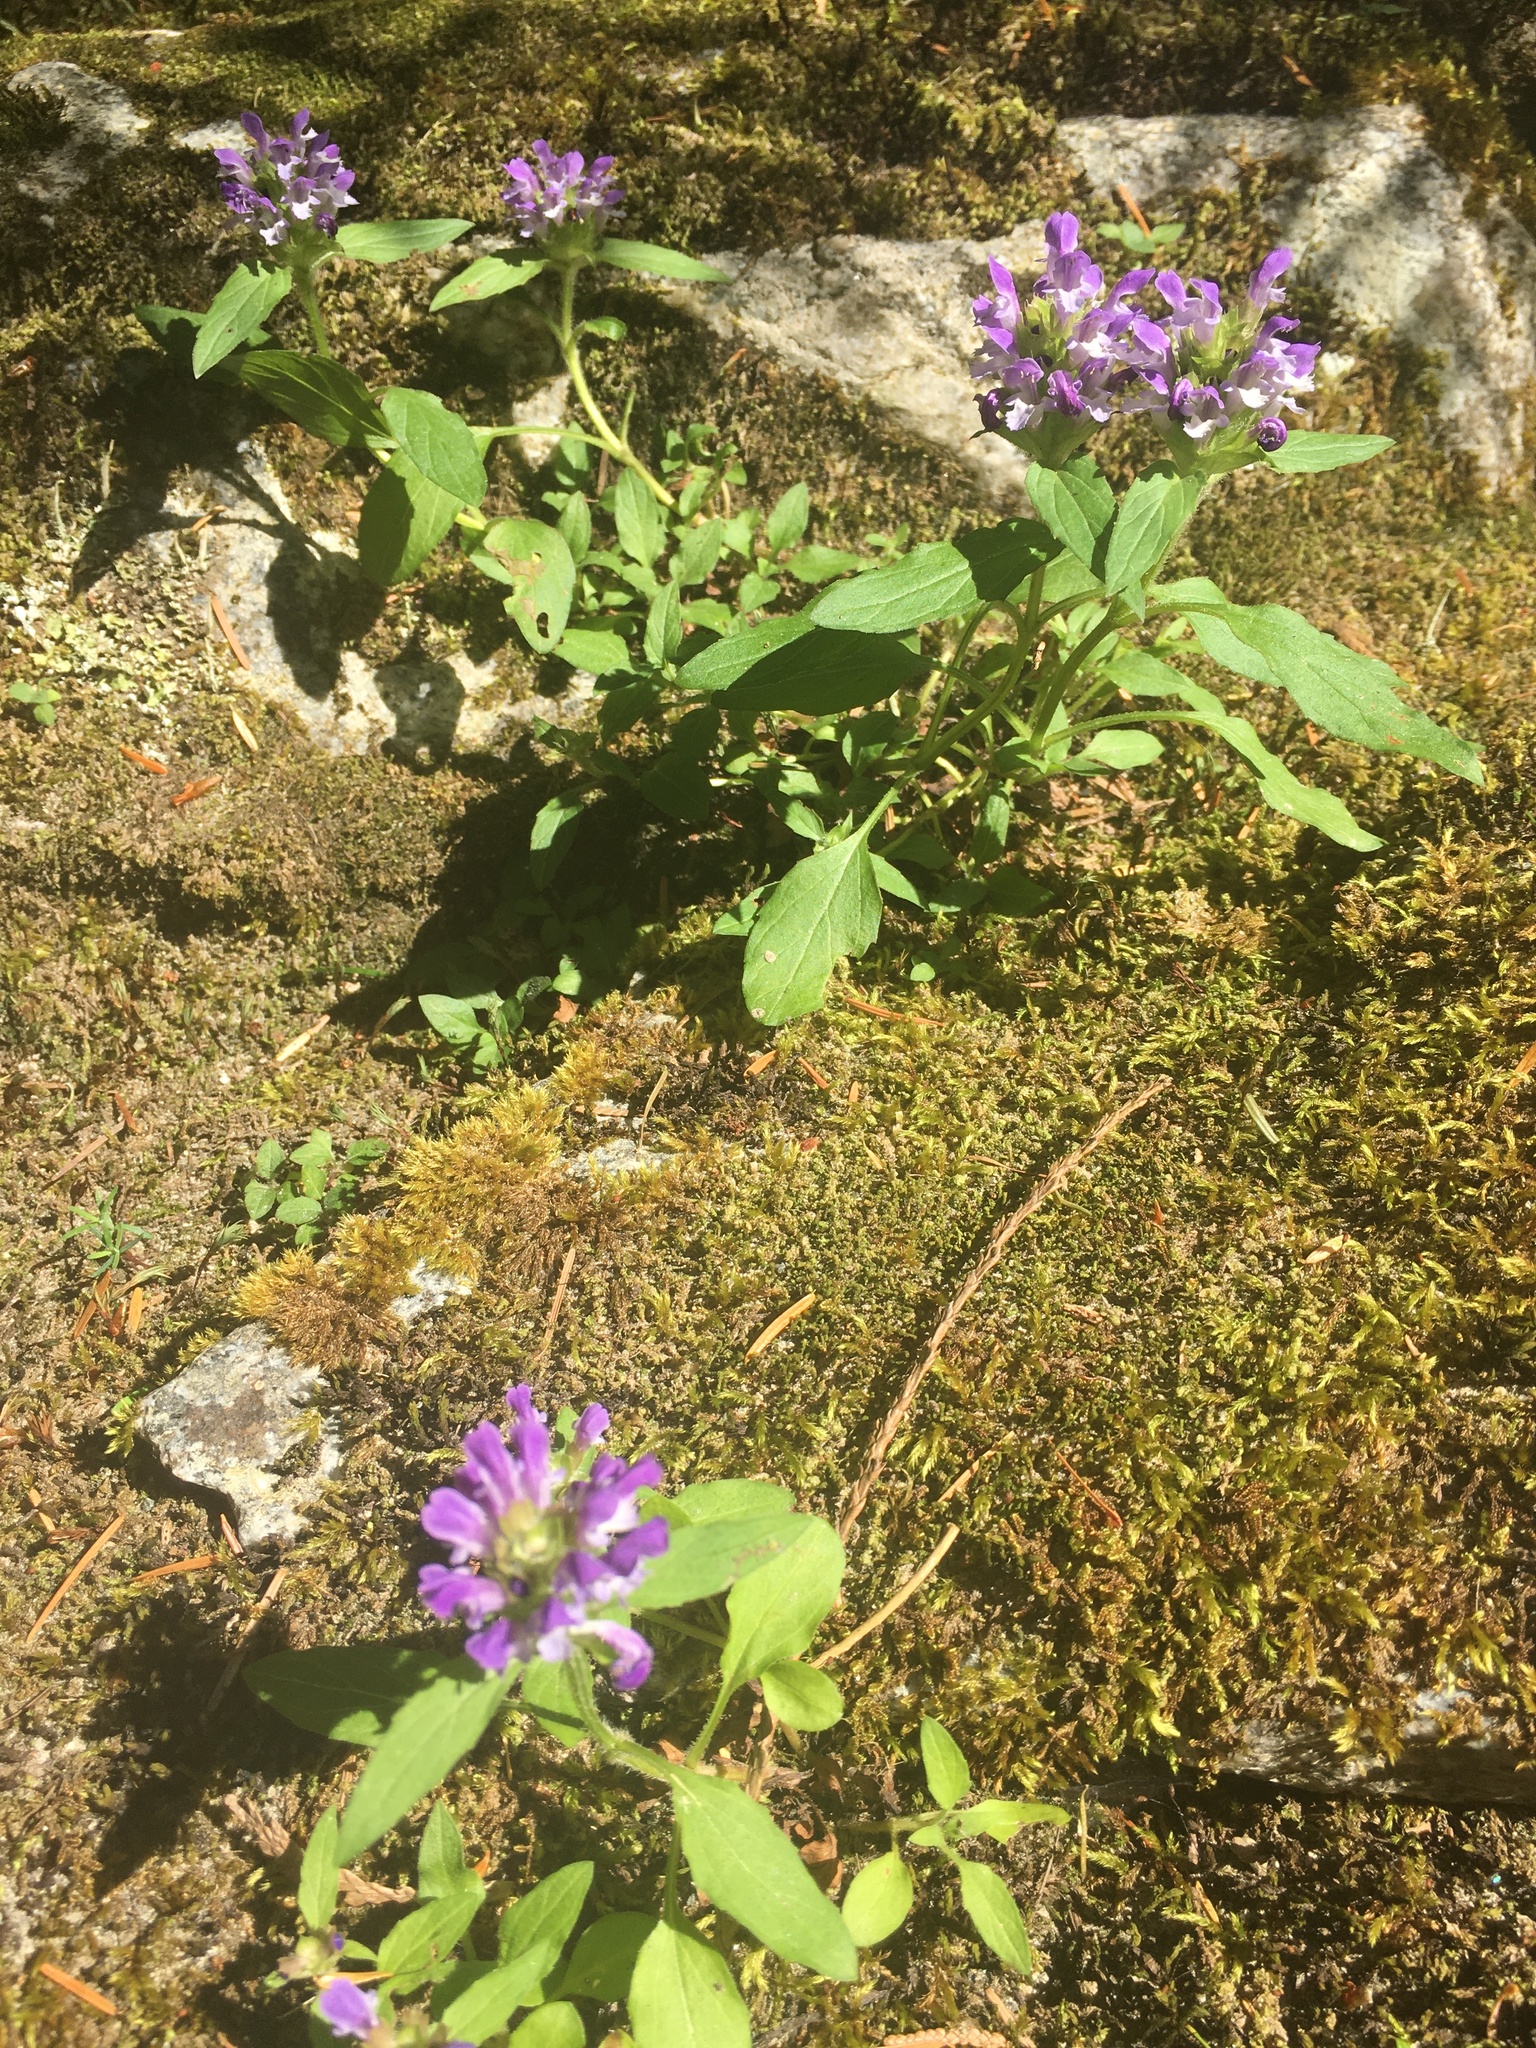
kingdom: Plantae
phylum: Tracheophyta
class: Magnoliopsida
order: Lamiales
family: Lamiaceae
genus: Prunella
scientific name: Prunella vulgaris
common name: Heal-all
